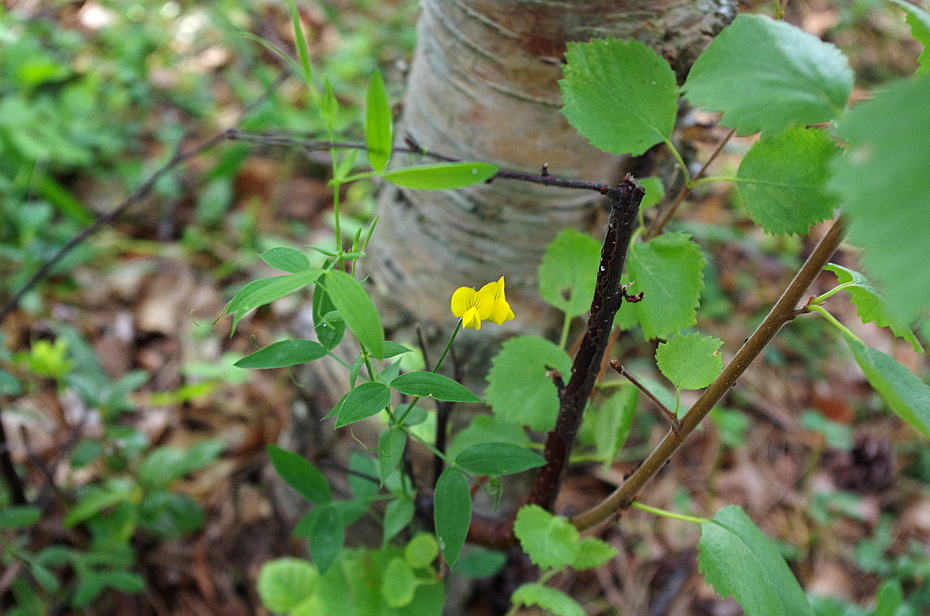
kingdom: Plantae
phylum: Tracheophyta
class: Magnoliopsida
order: Fabales
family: Fabaceae
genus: Lathyrus
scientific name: Lathyrus pratensis
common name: Meadow vetchling
